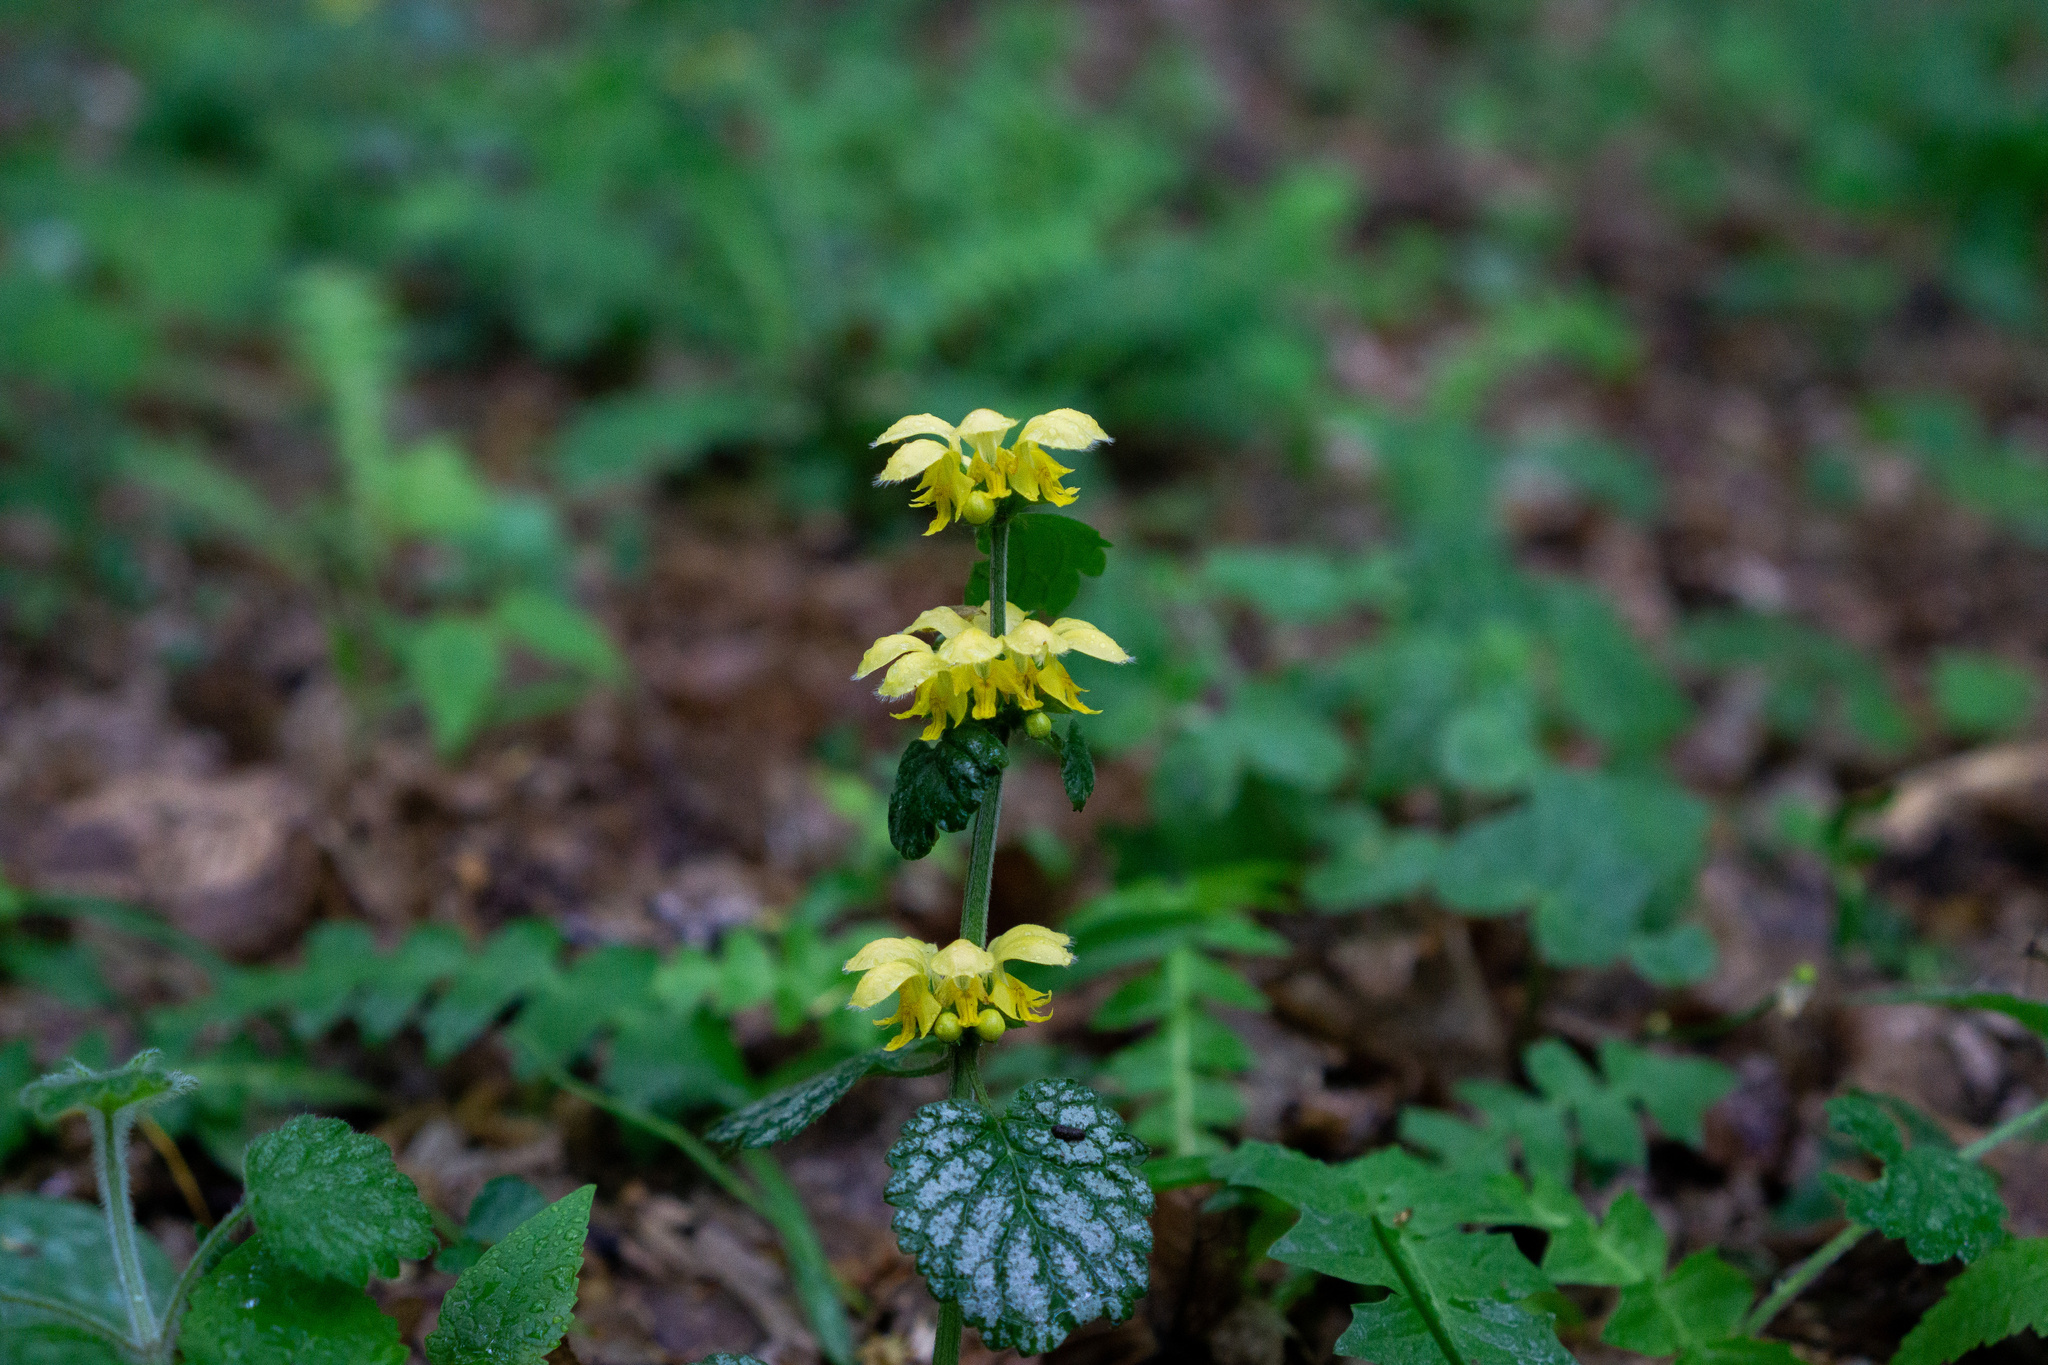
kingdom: Plantae
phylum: Tracheophyta
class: Magnoliopsida
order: Lamiales
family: Lamiaceae
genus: Lamium
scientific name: Lamium galeobdolon
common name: Yellow archangel
